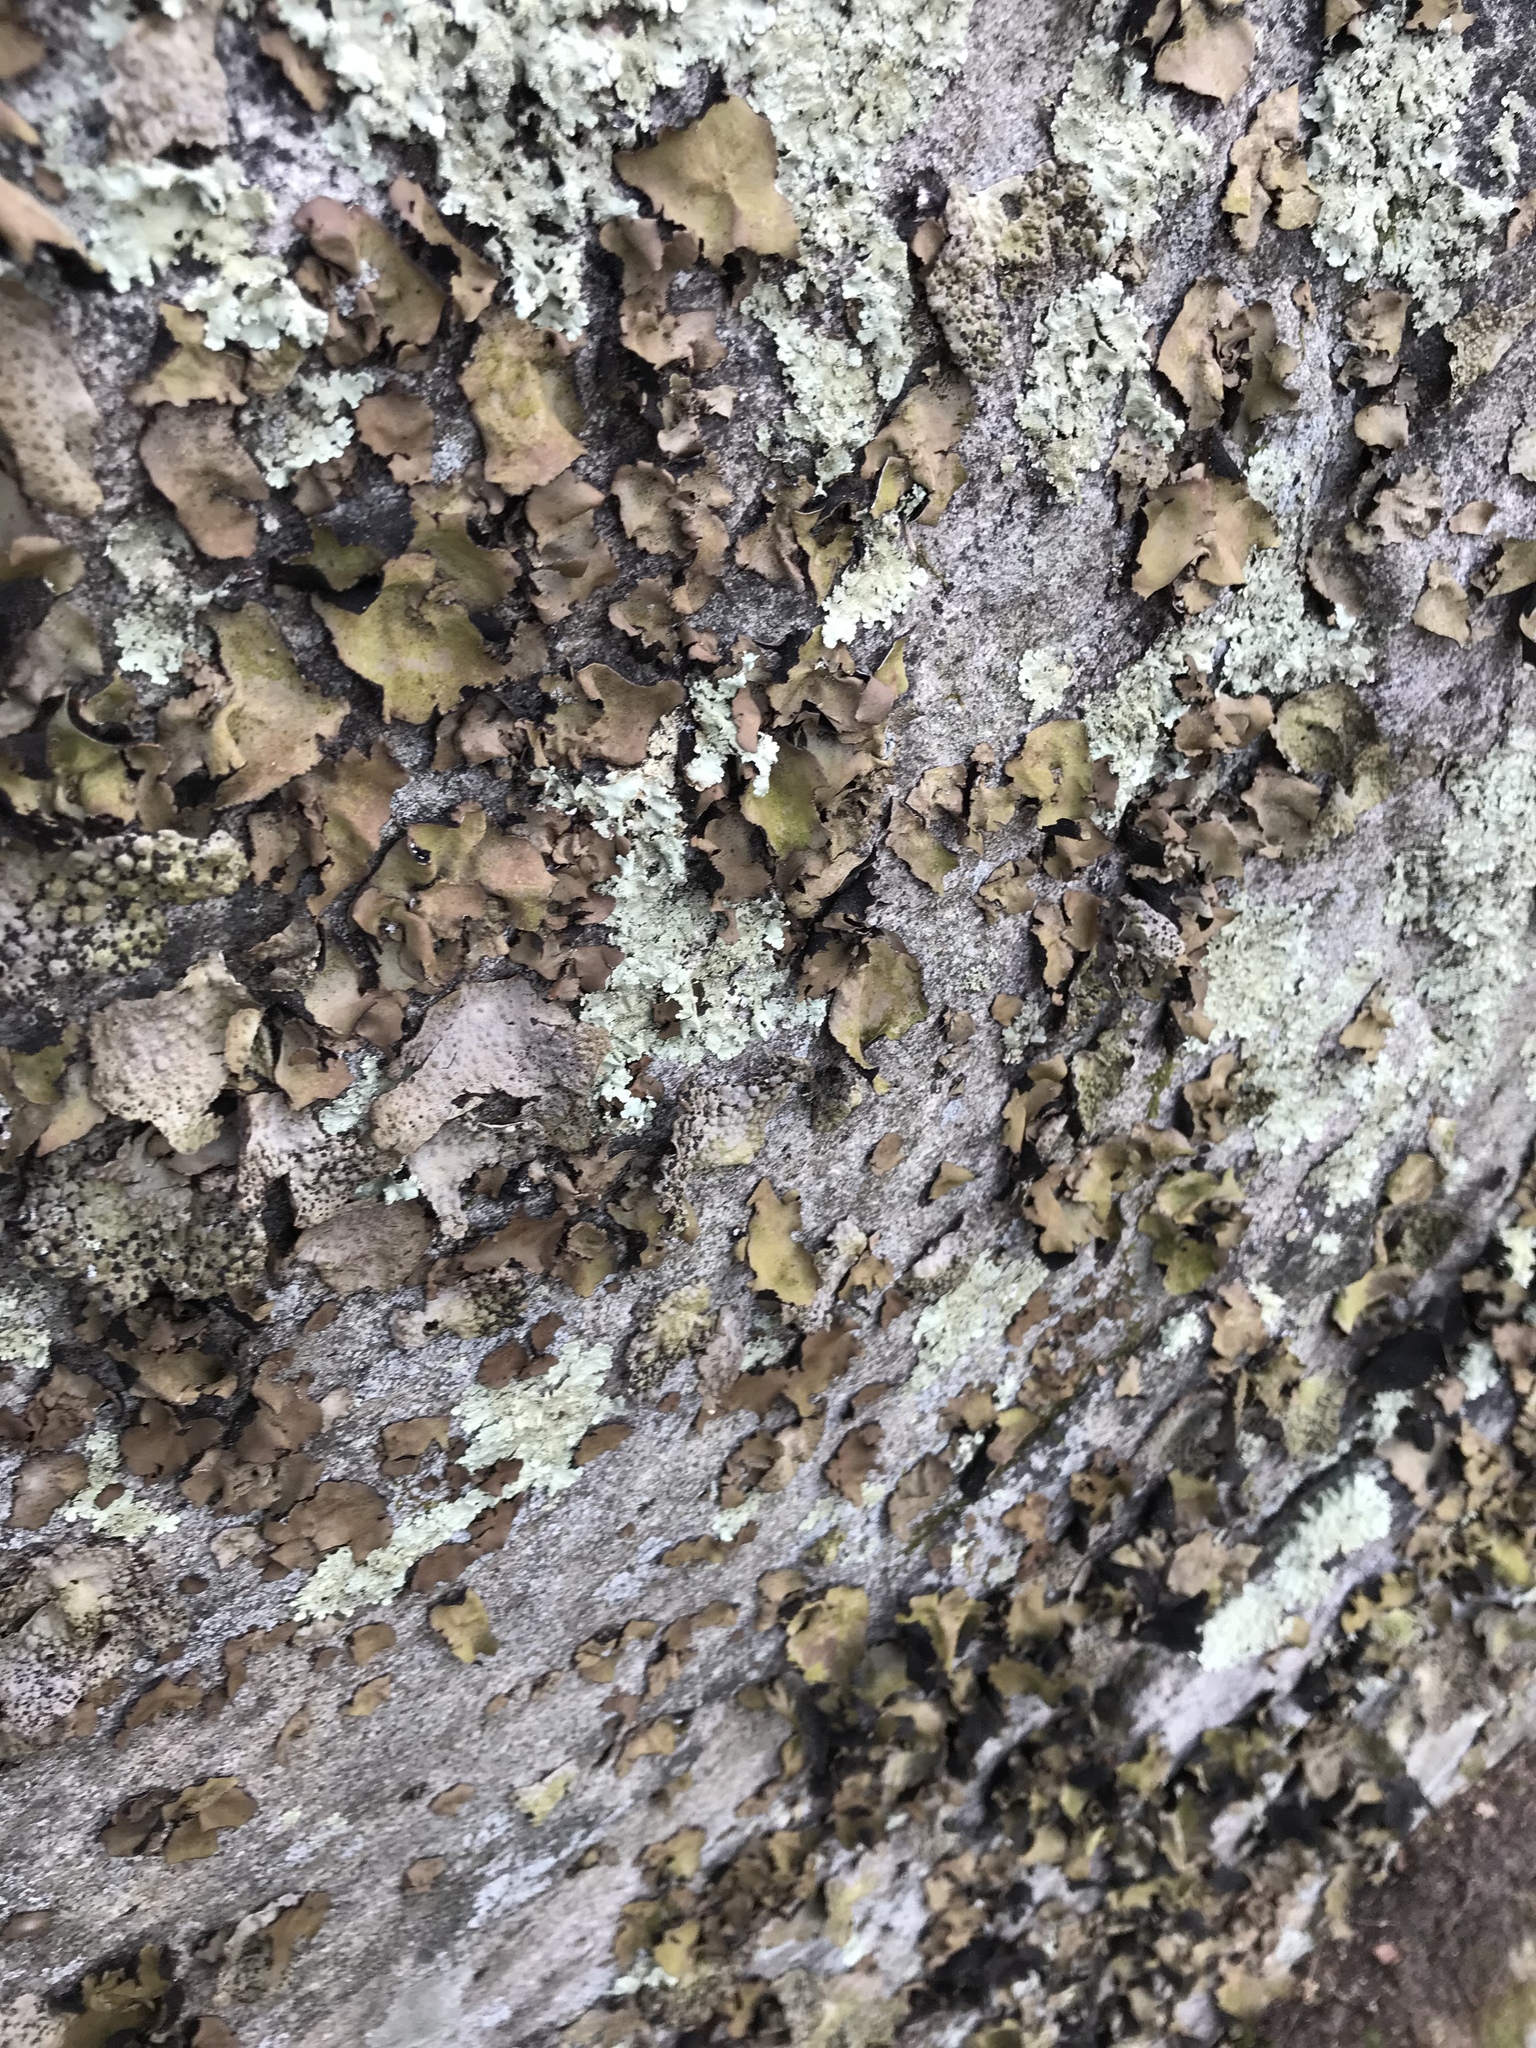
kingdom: Fungi
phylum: Ascomycota
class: Lecanoromycetes
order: Umbilicariales
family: Umbilicariaceae
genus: Umbilicaria
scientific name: Umbilicaria mammulata
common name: Smooth rock tripe
